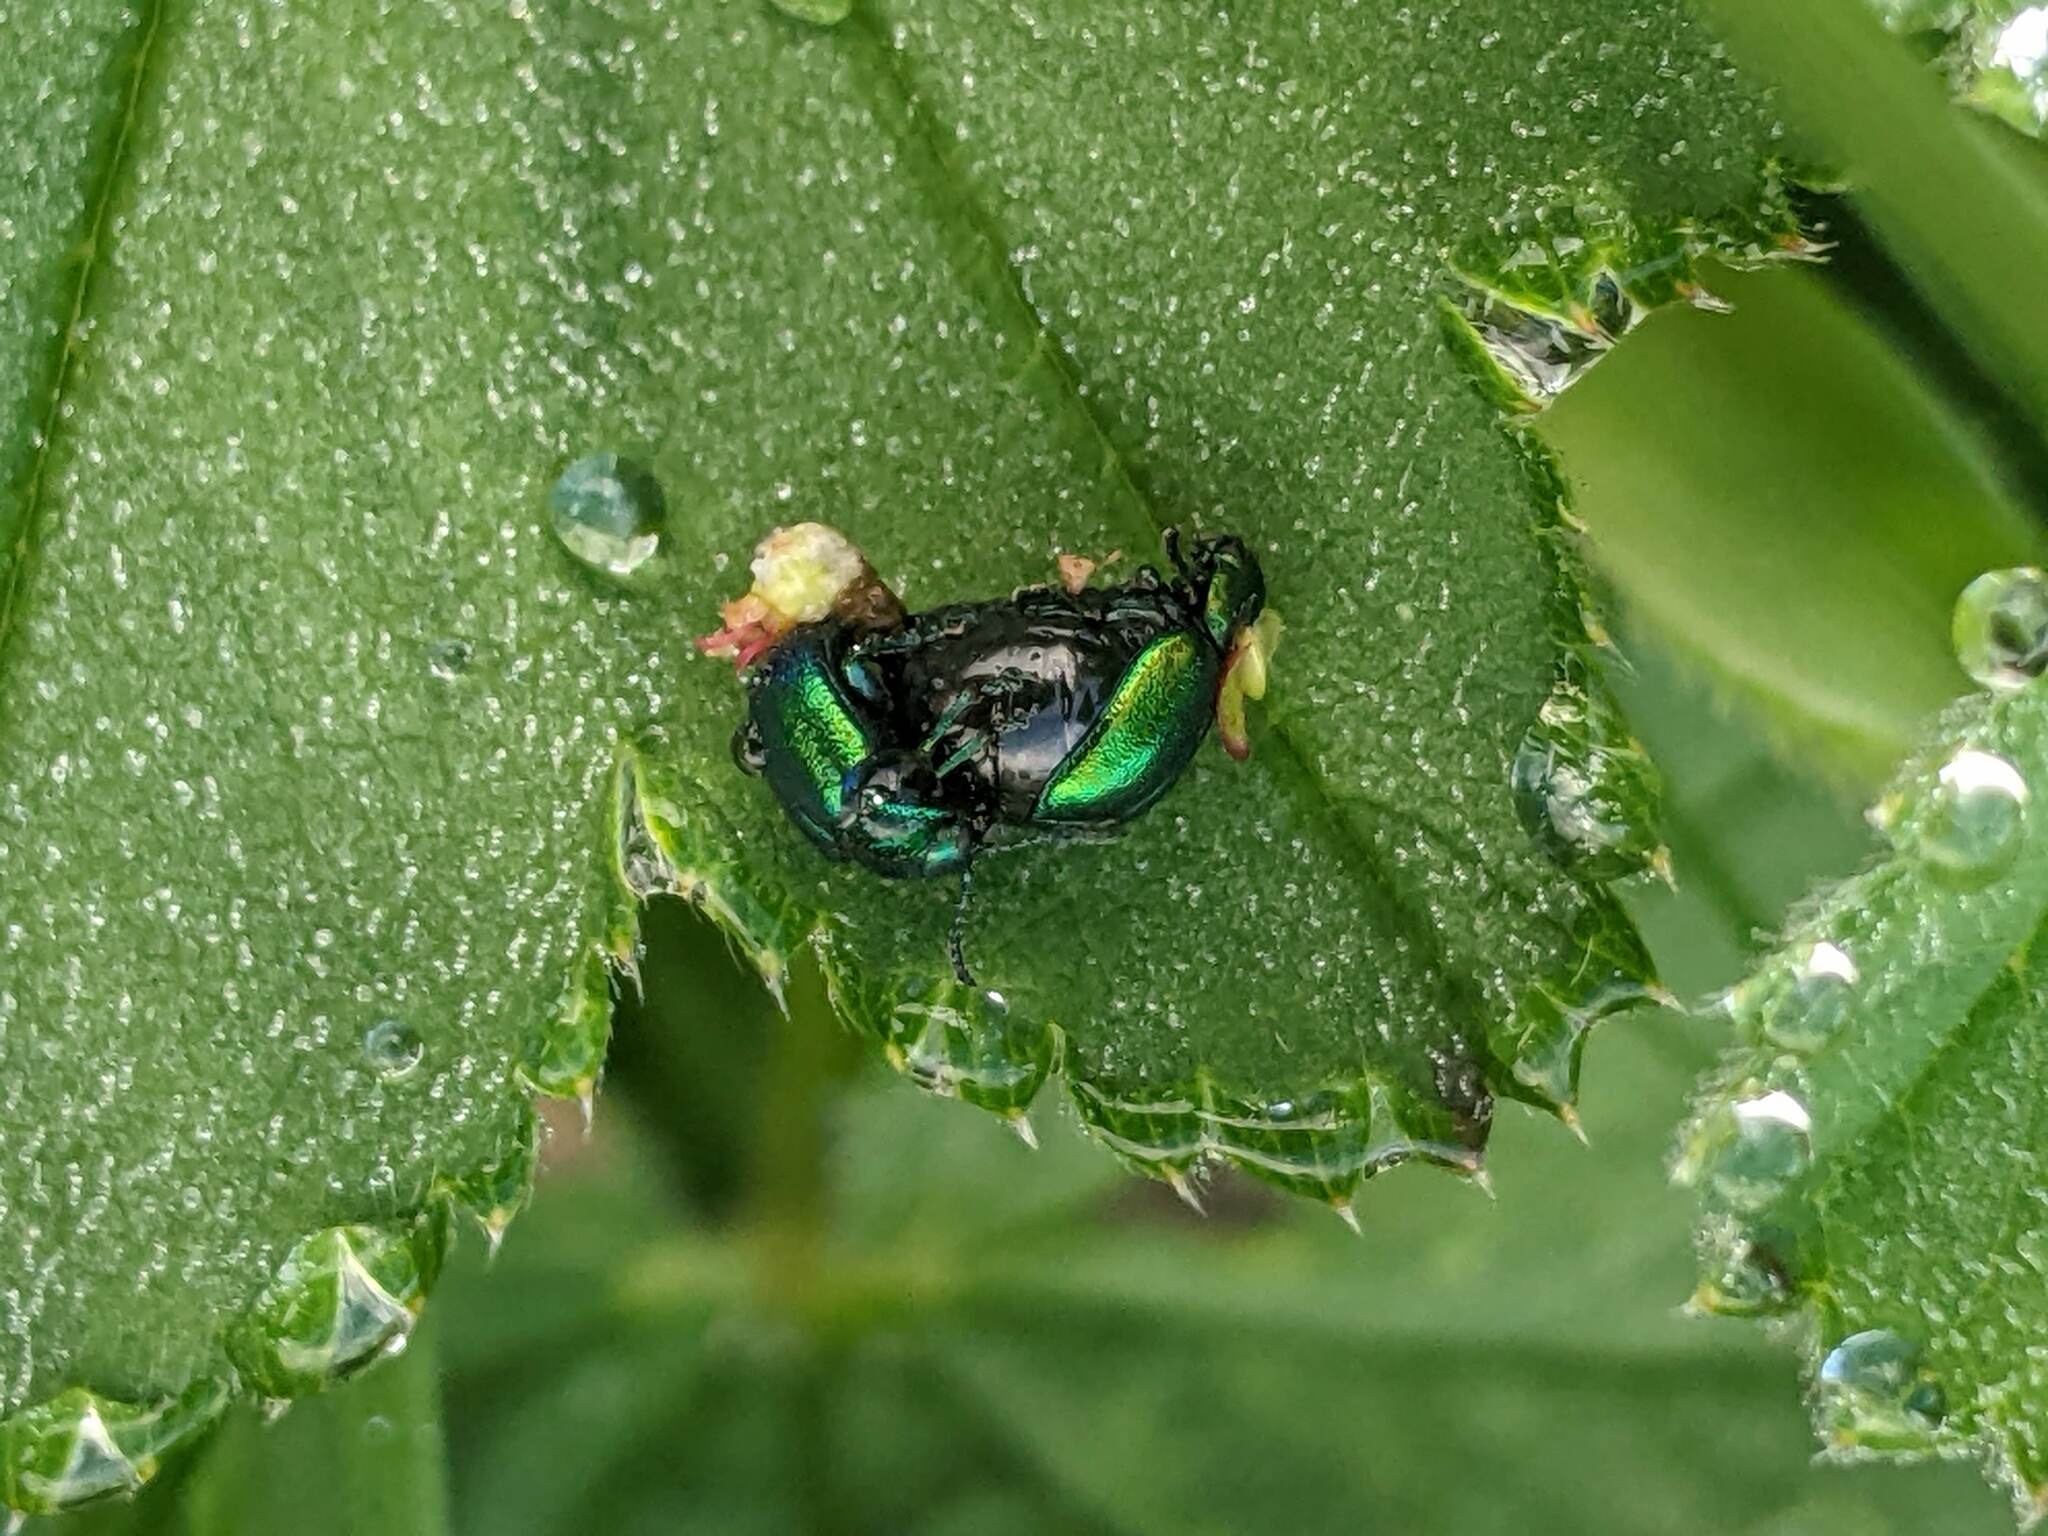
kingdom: Animalia
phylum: Arthropoda
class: Insecta
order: Coleoptera
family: Chrysomelidae
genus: Gastrophysa
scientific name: Gastrophysa viridula
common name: Green dock beetle
